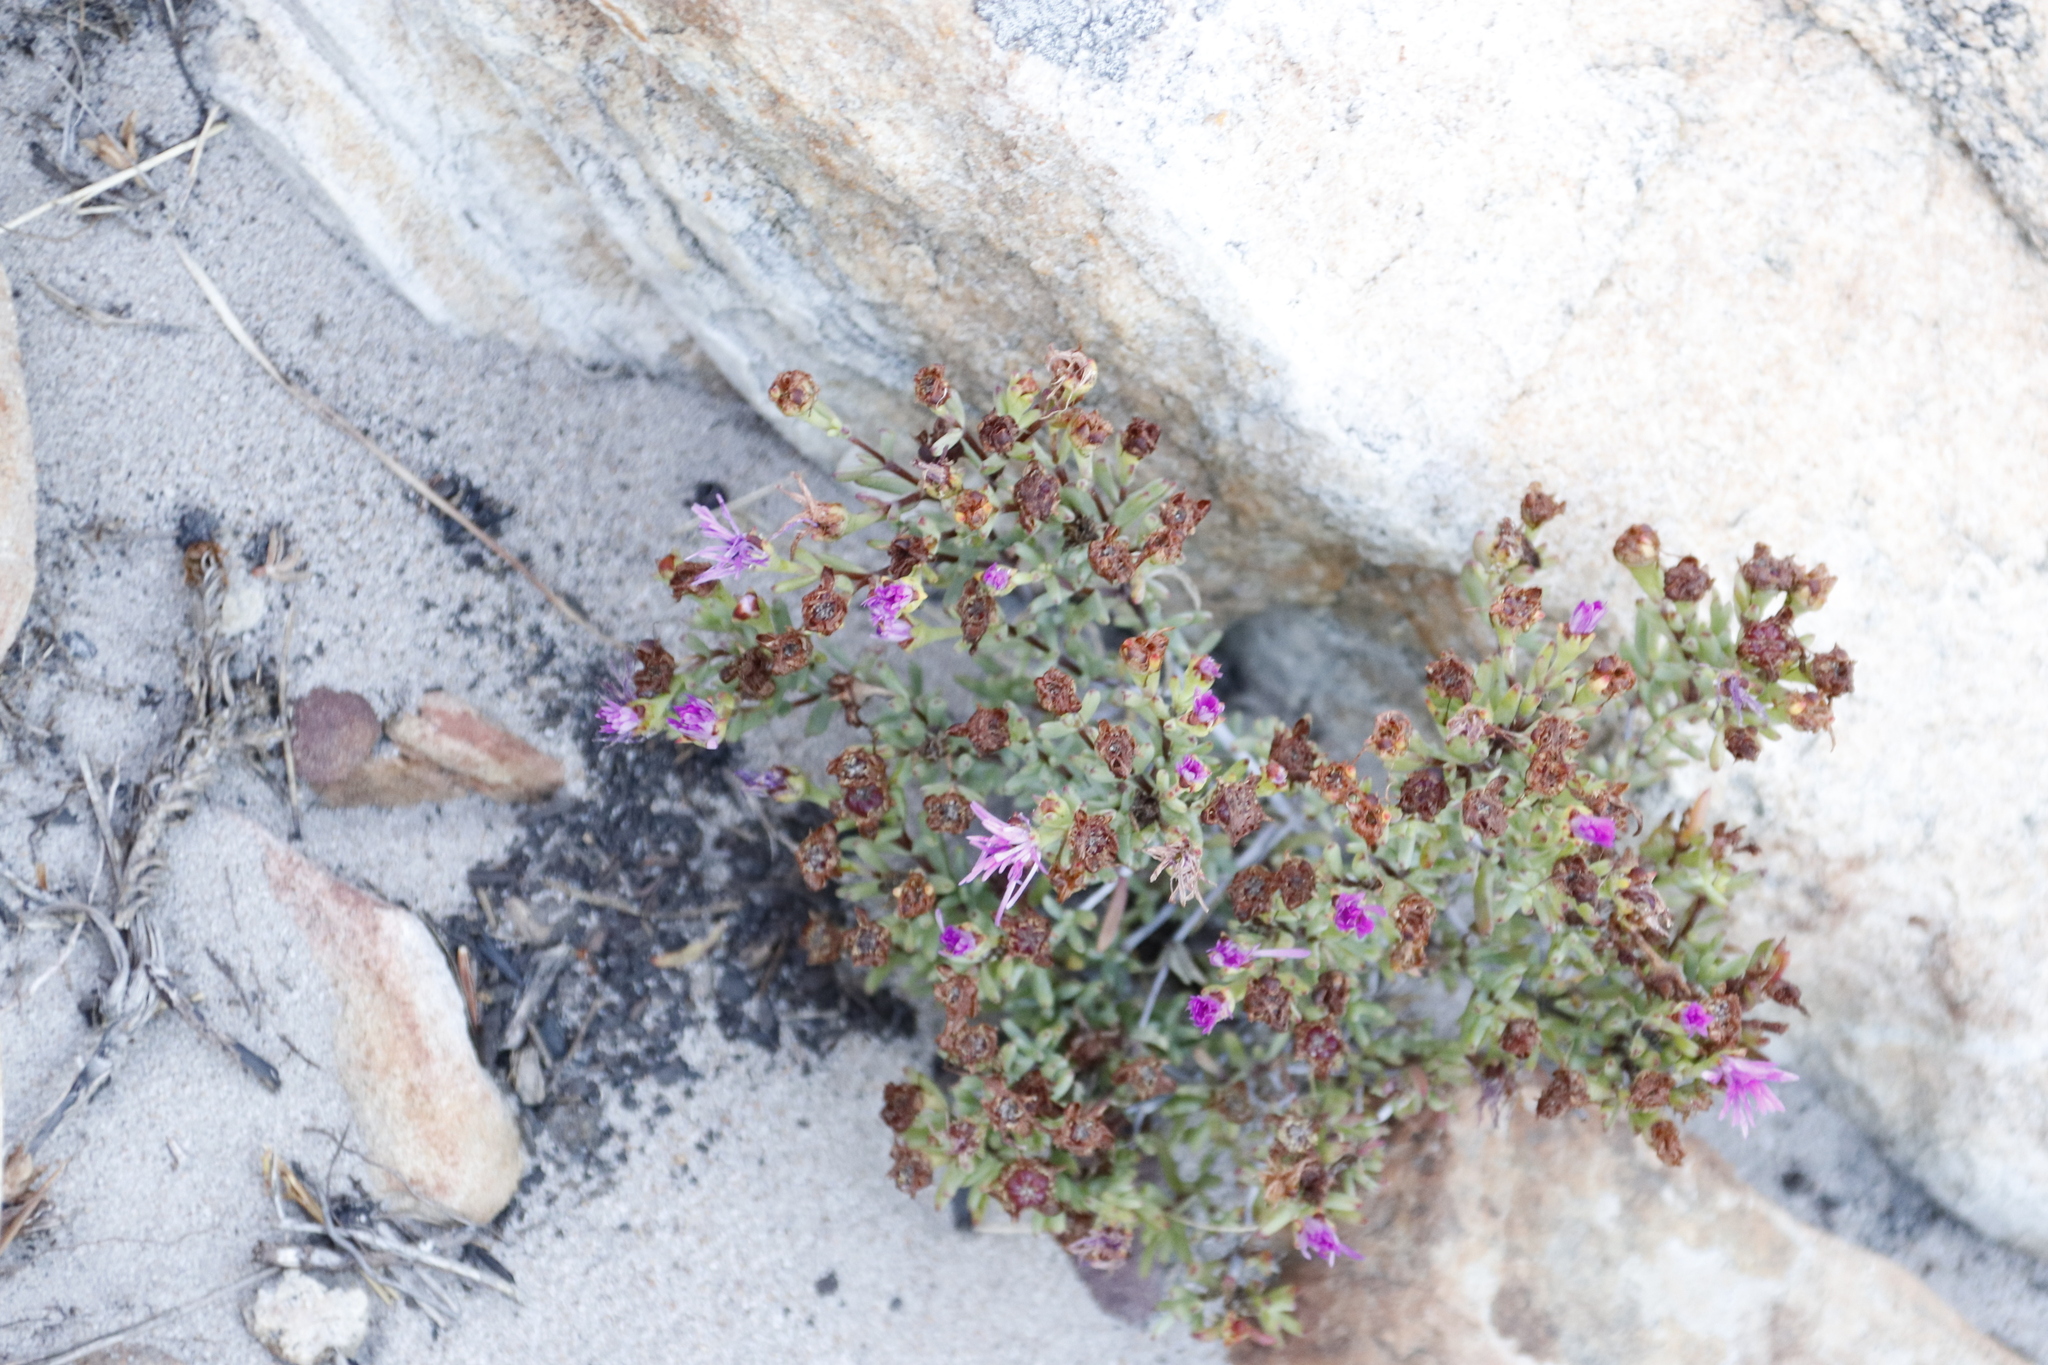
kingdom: Plantae
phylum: Tracheophyta
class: Magnoliopsida
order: Caryophyllales
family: Aizoaceae
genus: Lampranthus
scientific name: Lampranthus glomeratus
